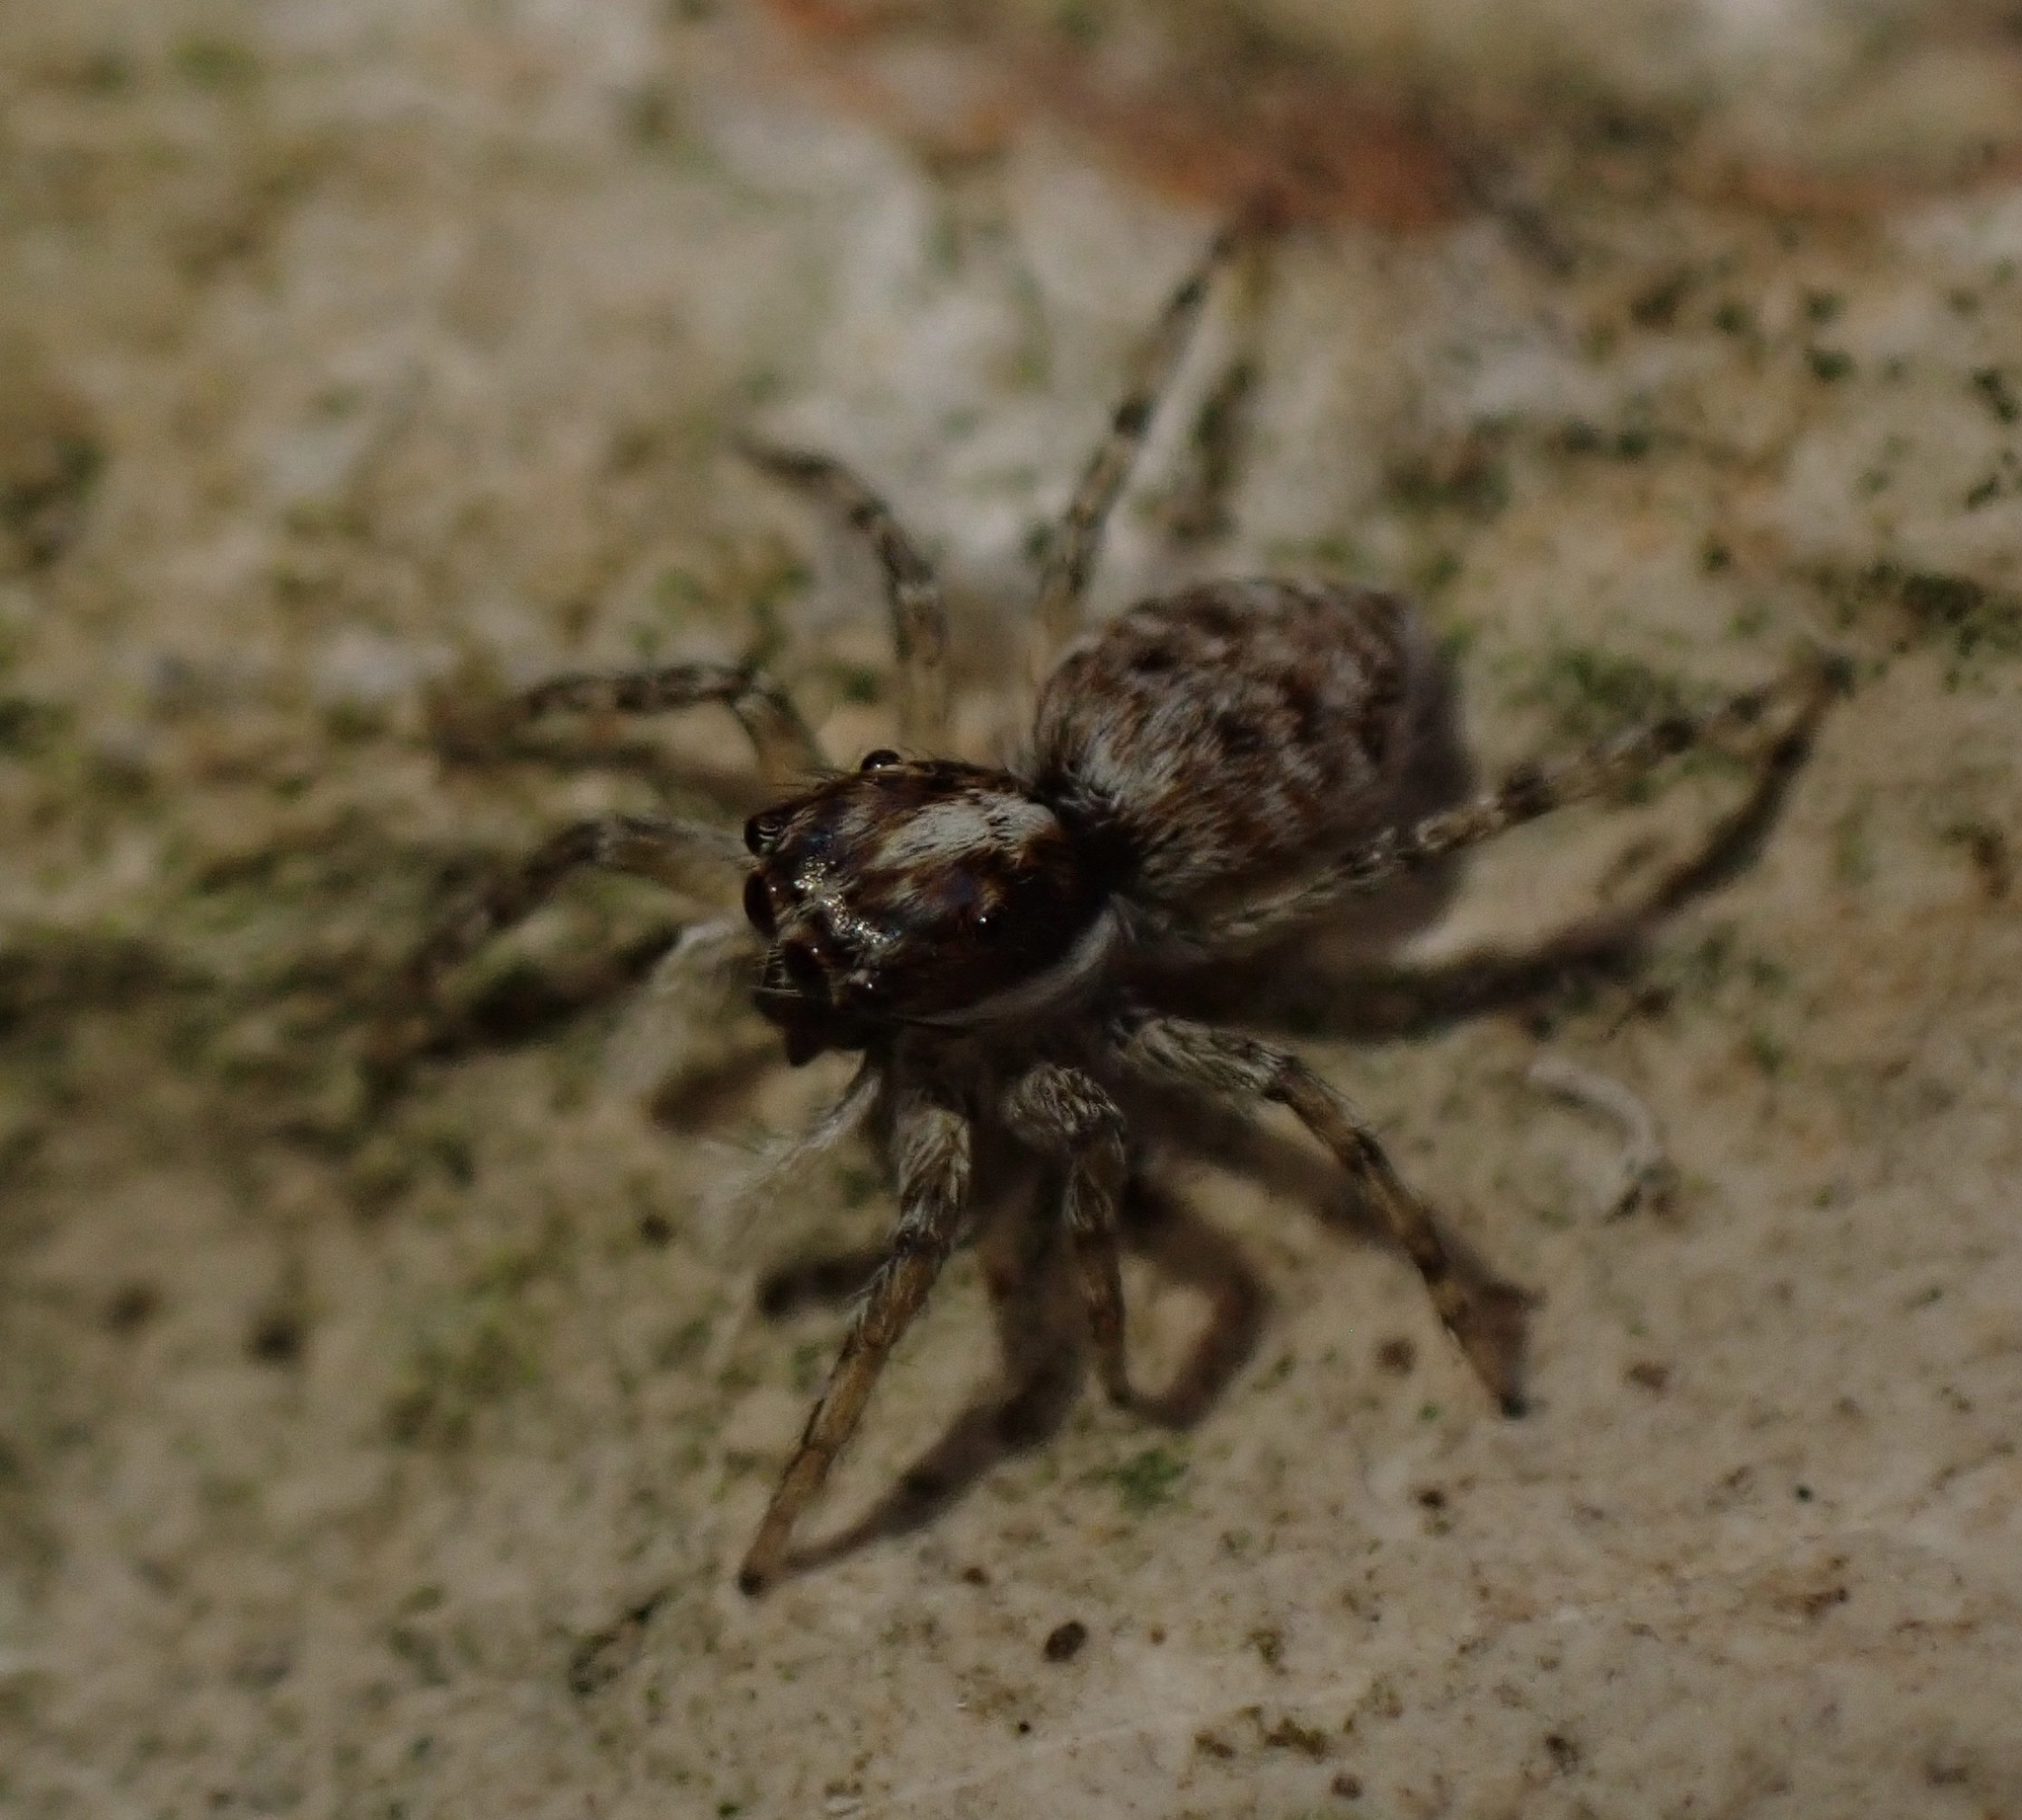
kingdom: Animalia
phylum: Arthropoda
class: Arachnida
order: Araneae
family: Salticidae
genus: Menemerus
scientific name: Menemerus semilimbatus
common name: Jumping spider
